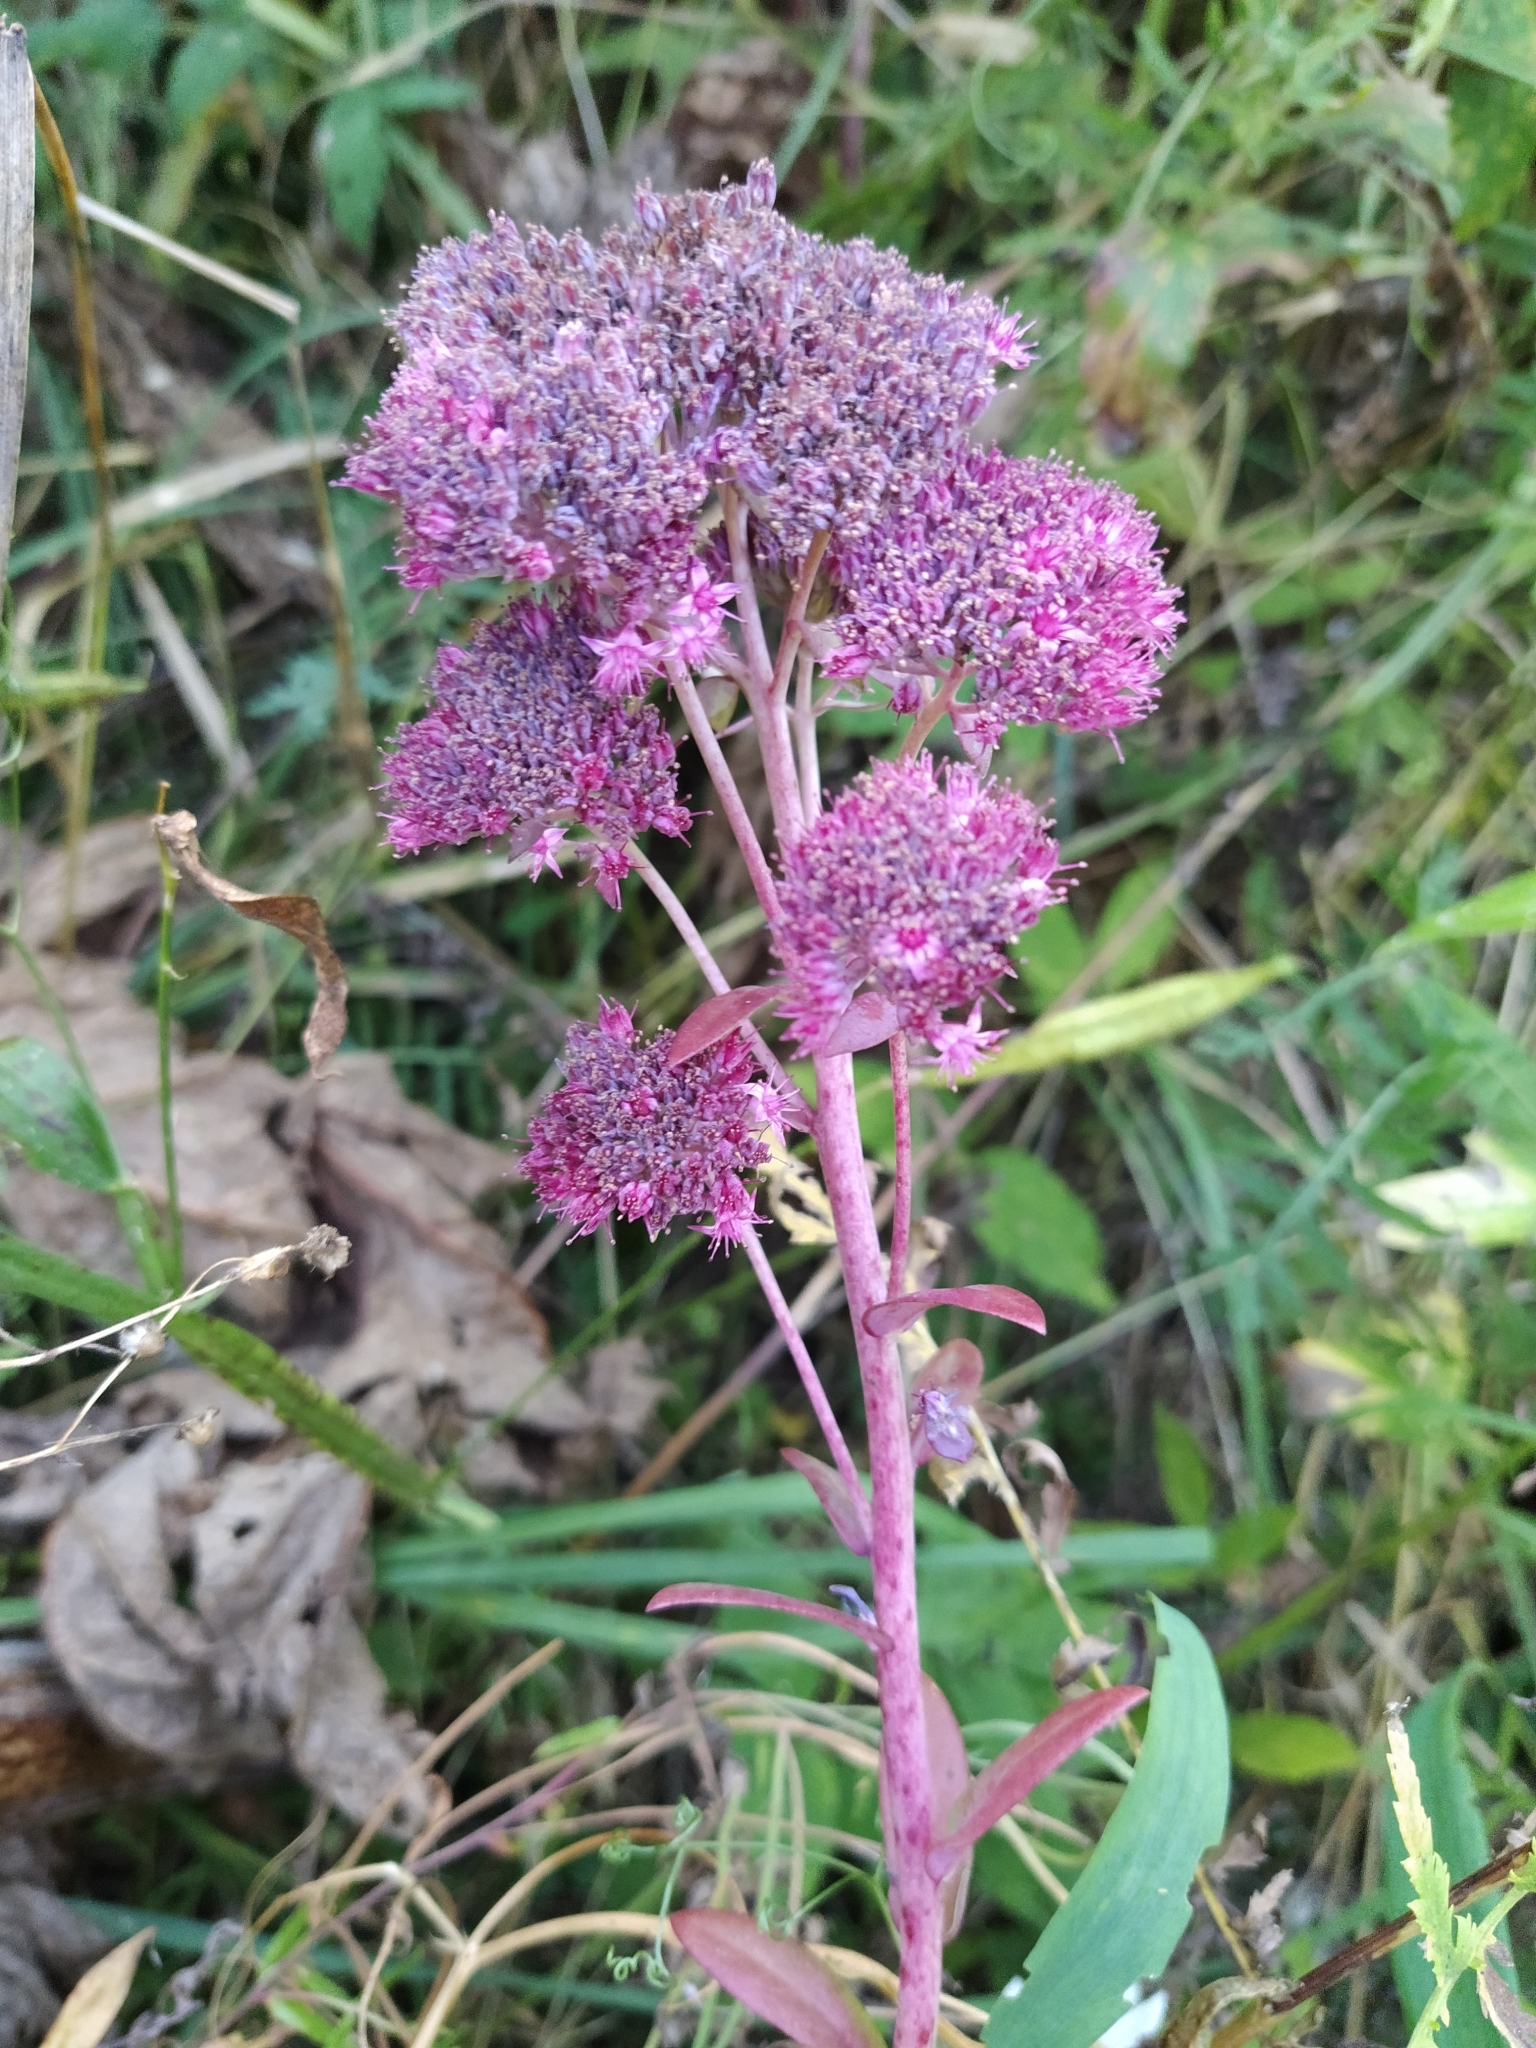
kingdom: Plantae
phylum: Tracheophyta
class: Magnoliopsida
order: Saxifragales
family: Crassulaceae
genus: Hylotelephium
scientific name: Hylotelephium telephium
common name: Live-forever
